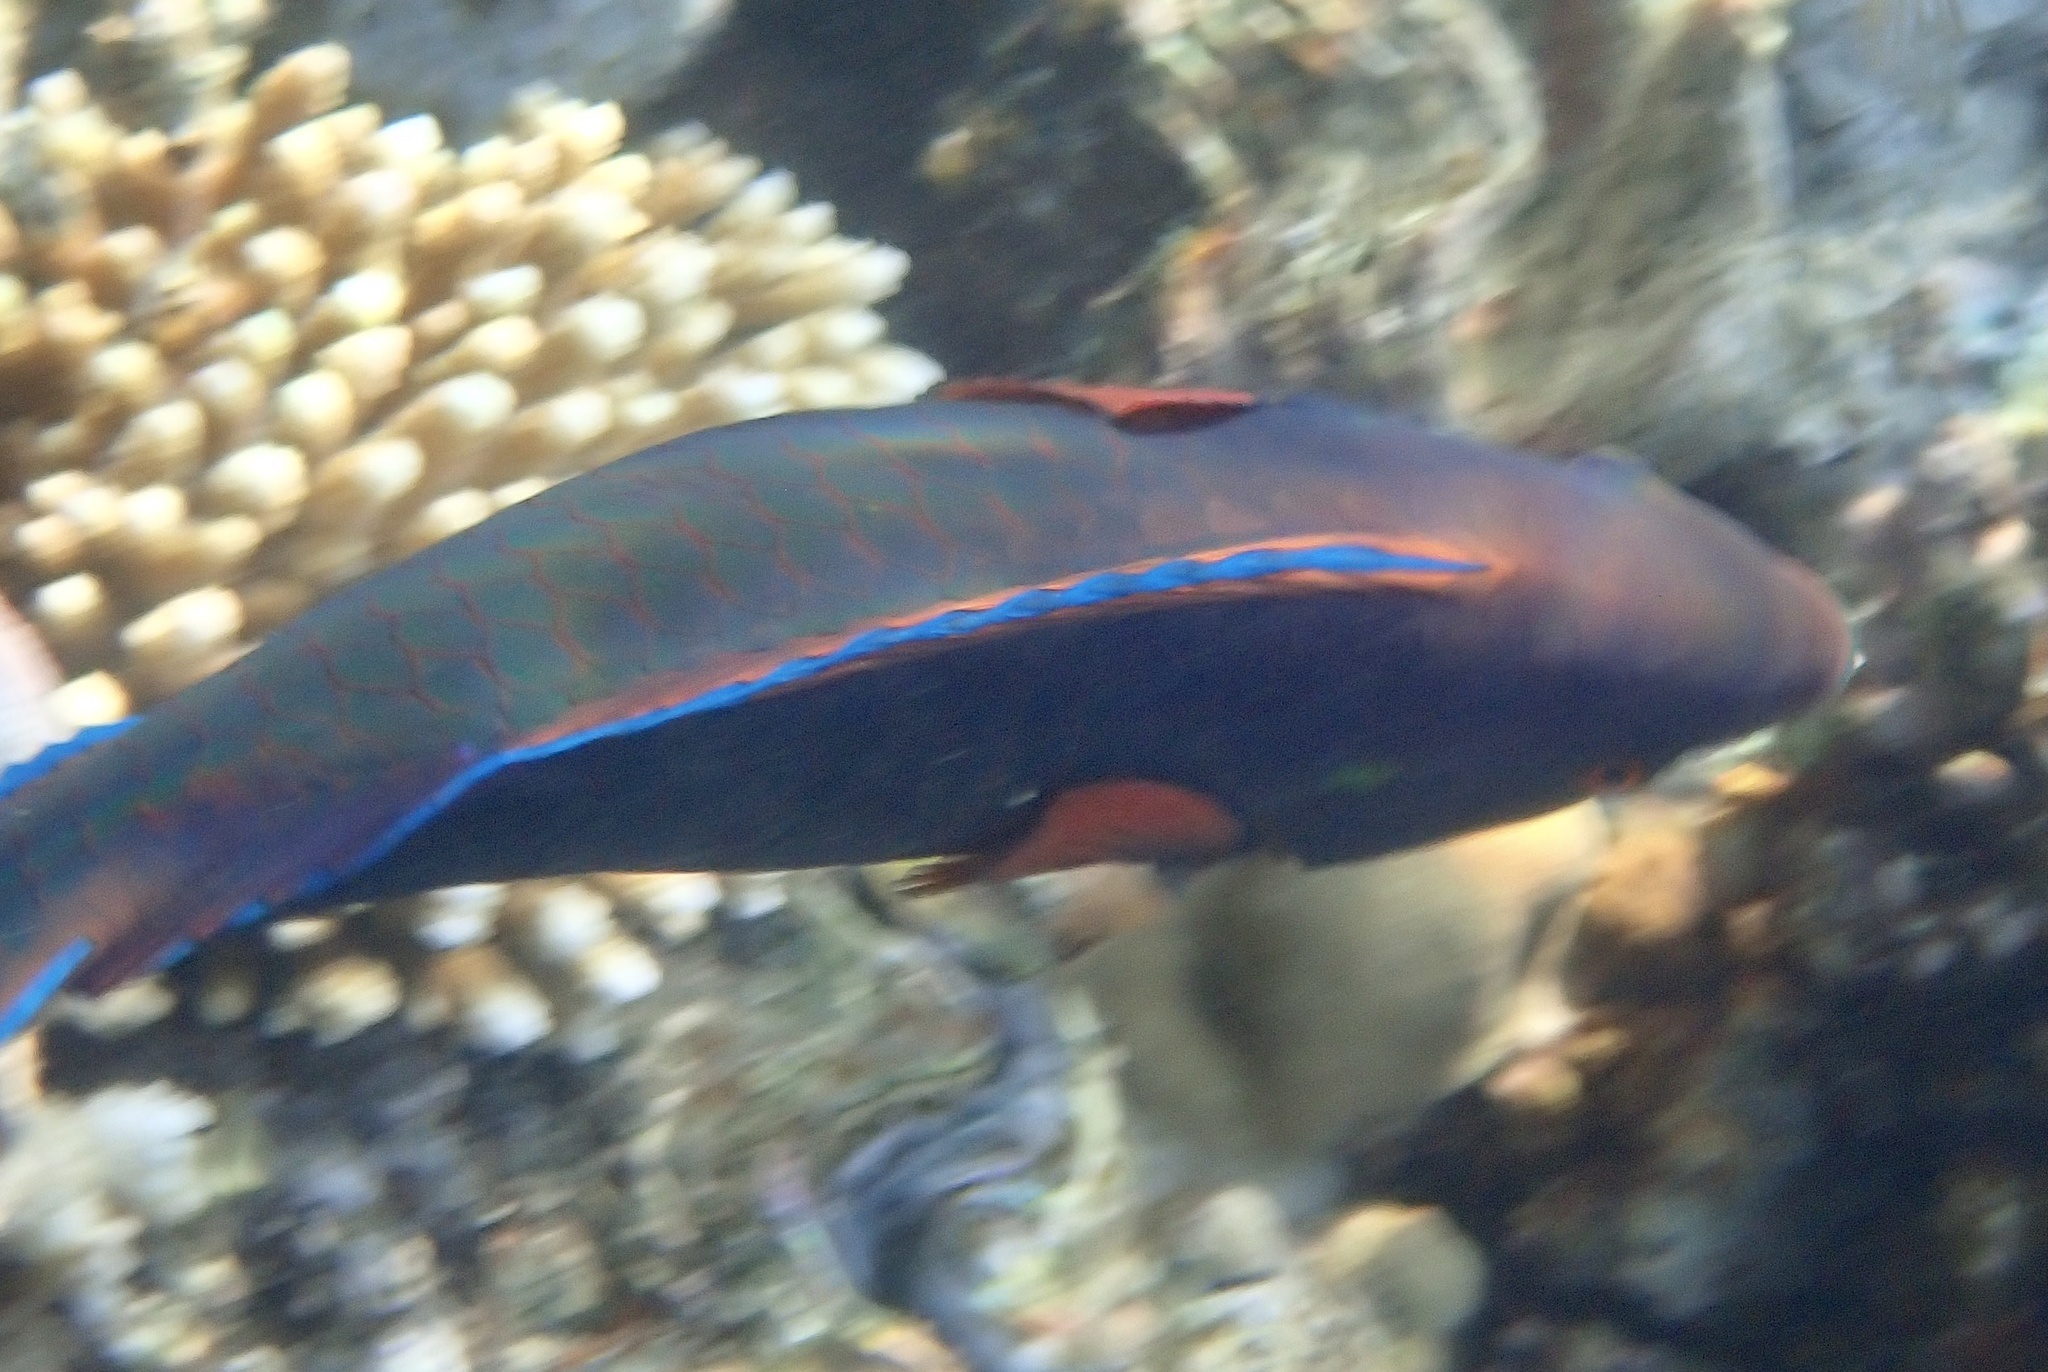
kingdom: Animalia
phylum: Chordata
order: Perciformes
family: Scaridae
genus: Scarus
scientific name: Scarus niger
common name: Dusky parrotfish
